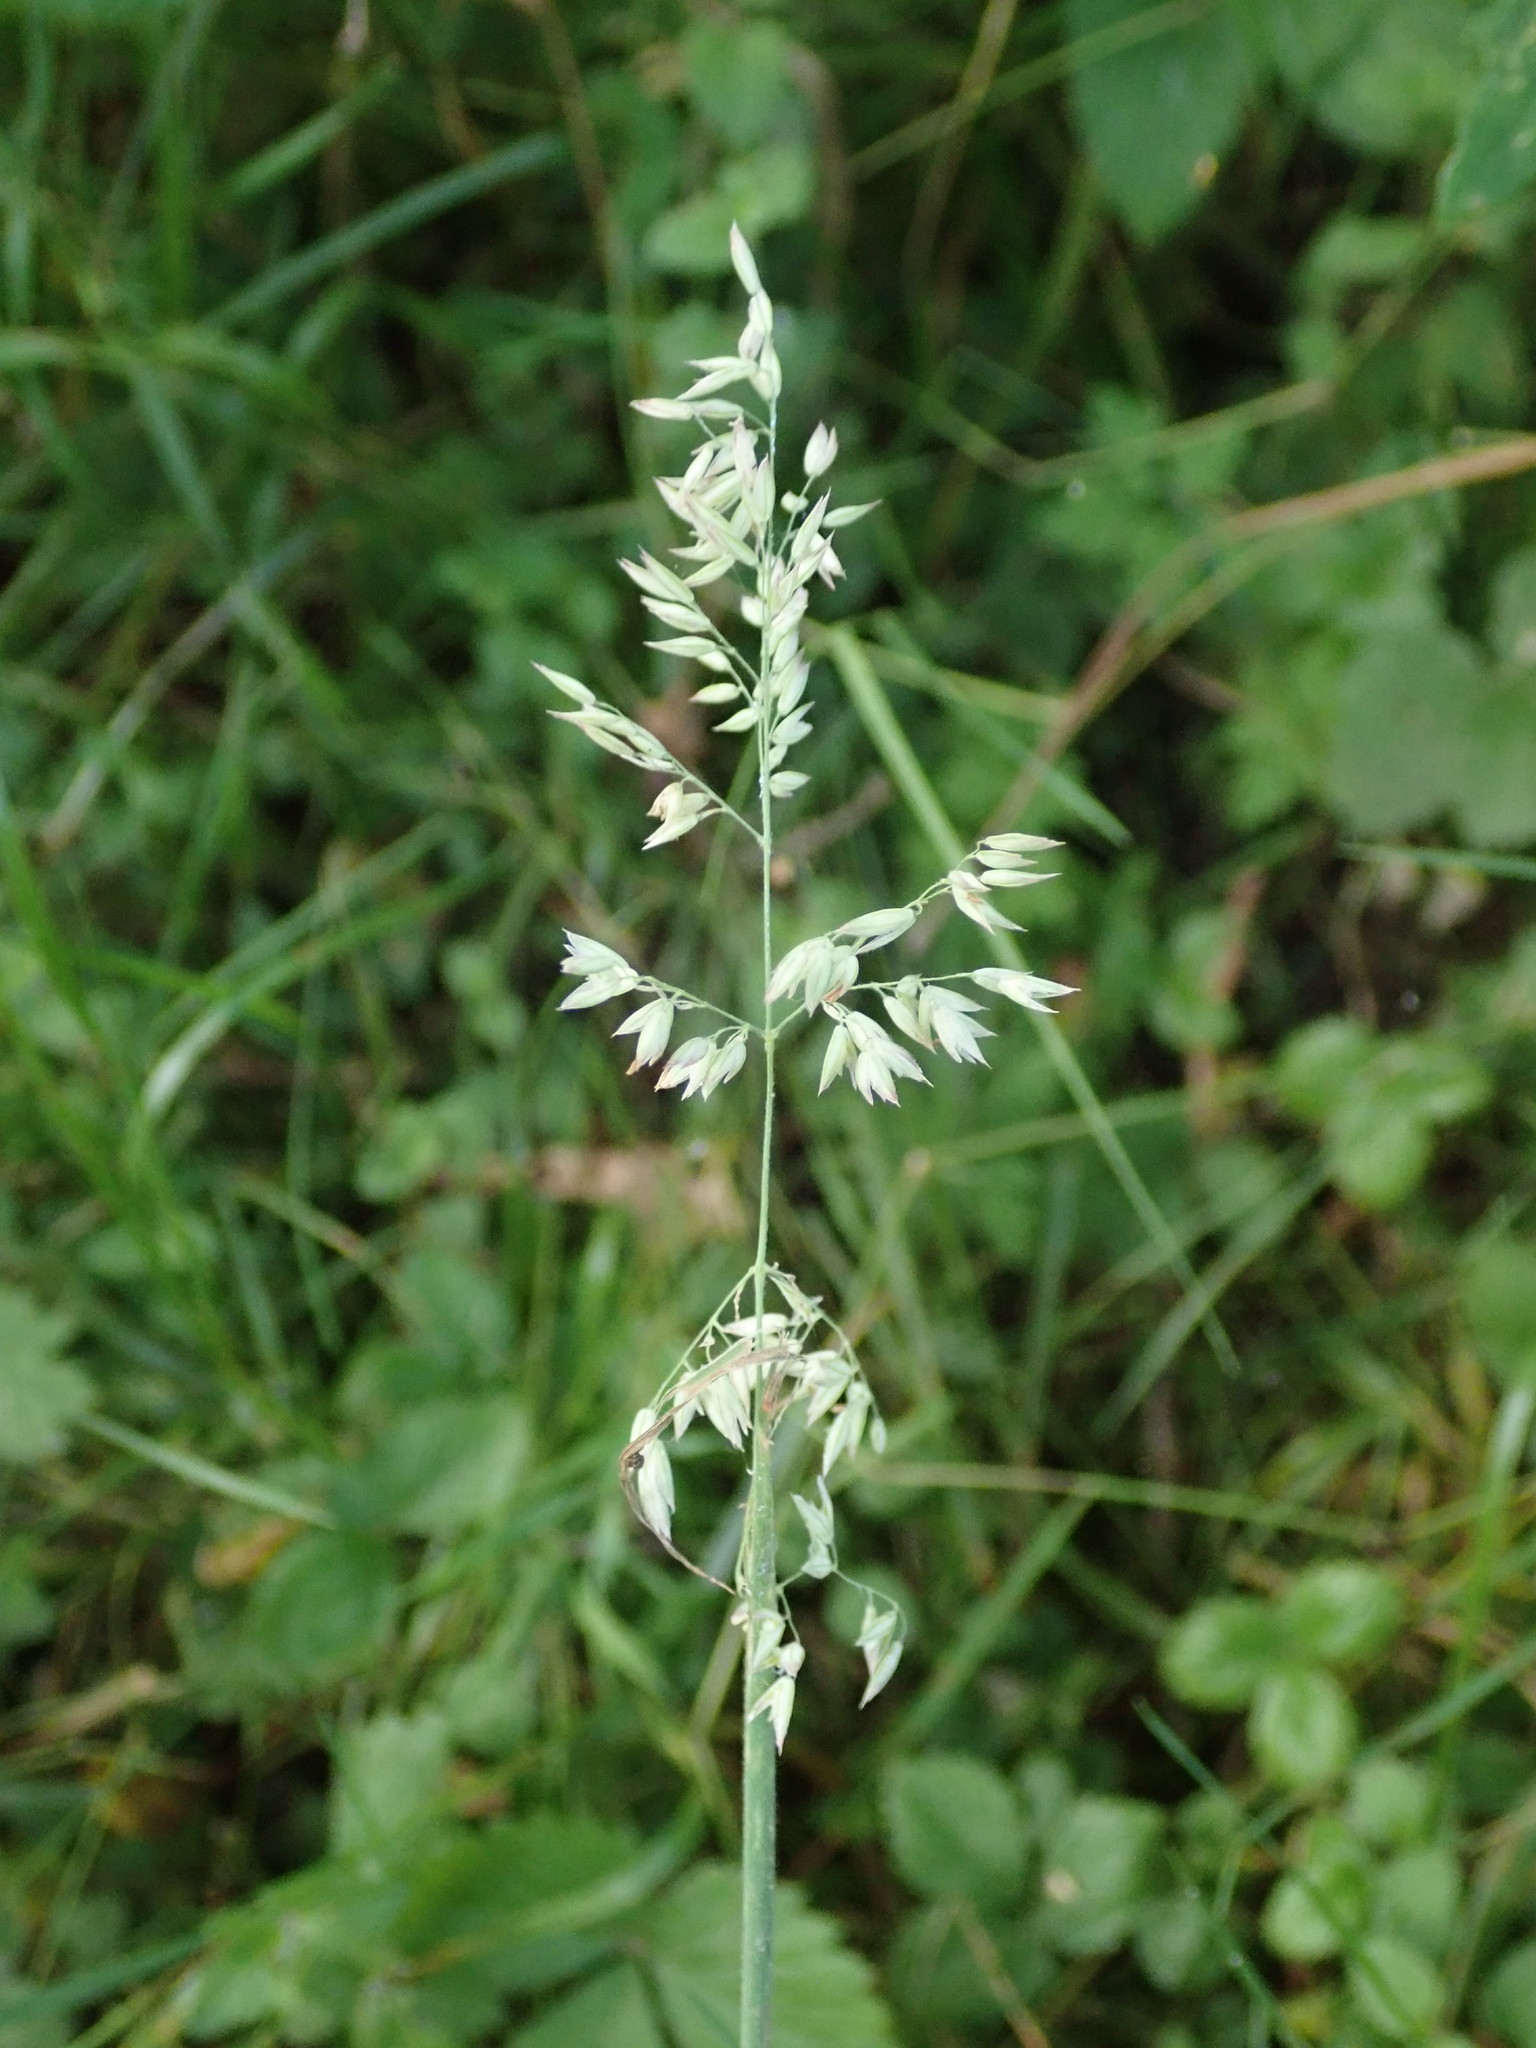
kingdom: Plantae
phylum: Tracheophyta
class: Liliopsida
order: Poales
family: Poaceae
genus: Holcus
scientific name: Holcus lanatus
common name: Yorkshire-fog
